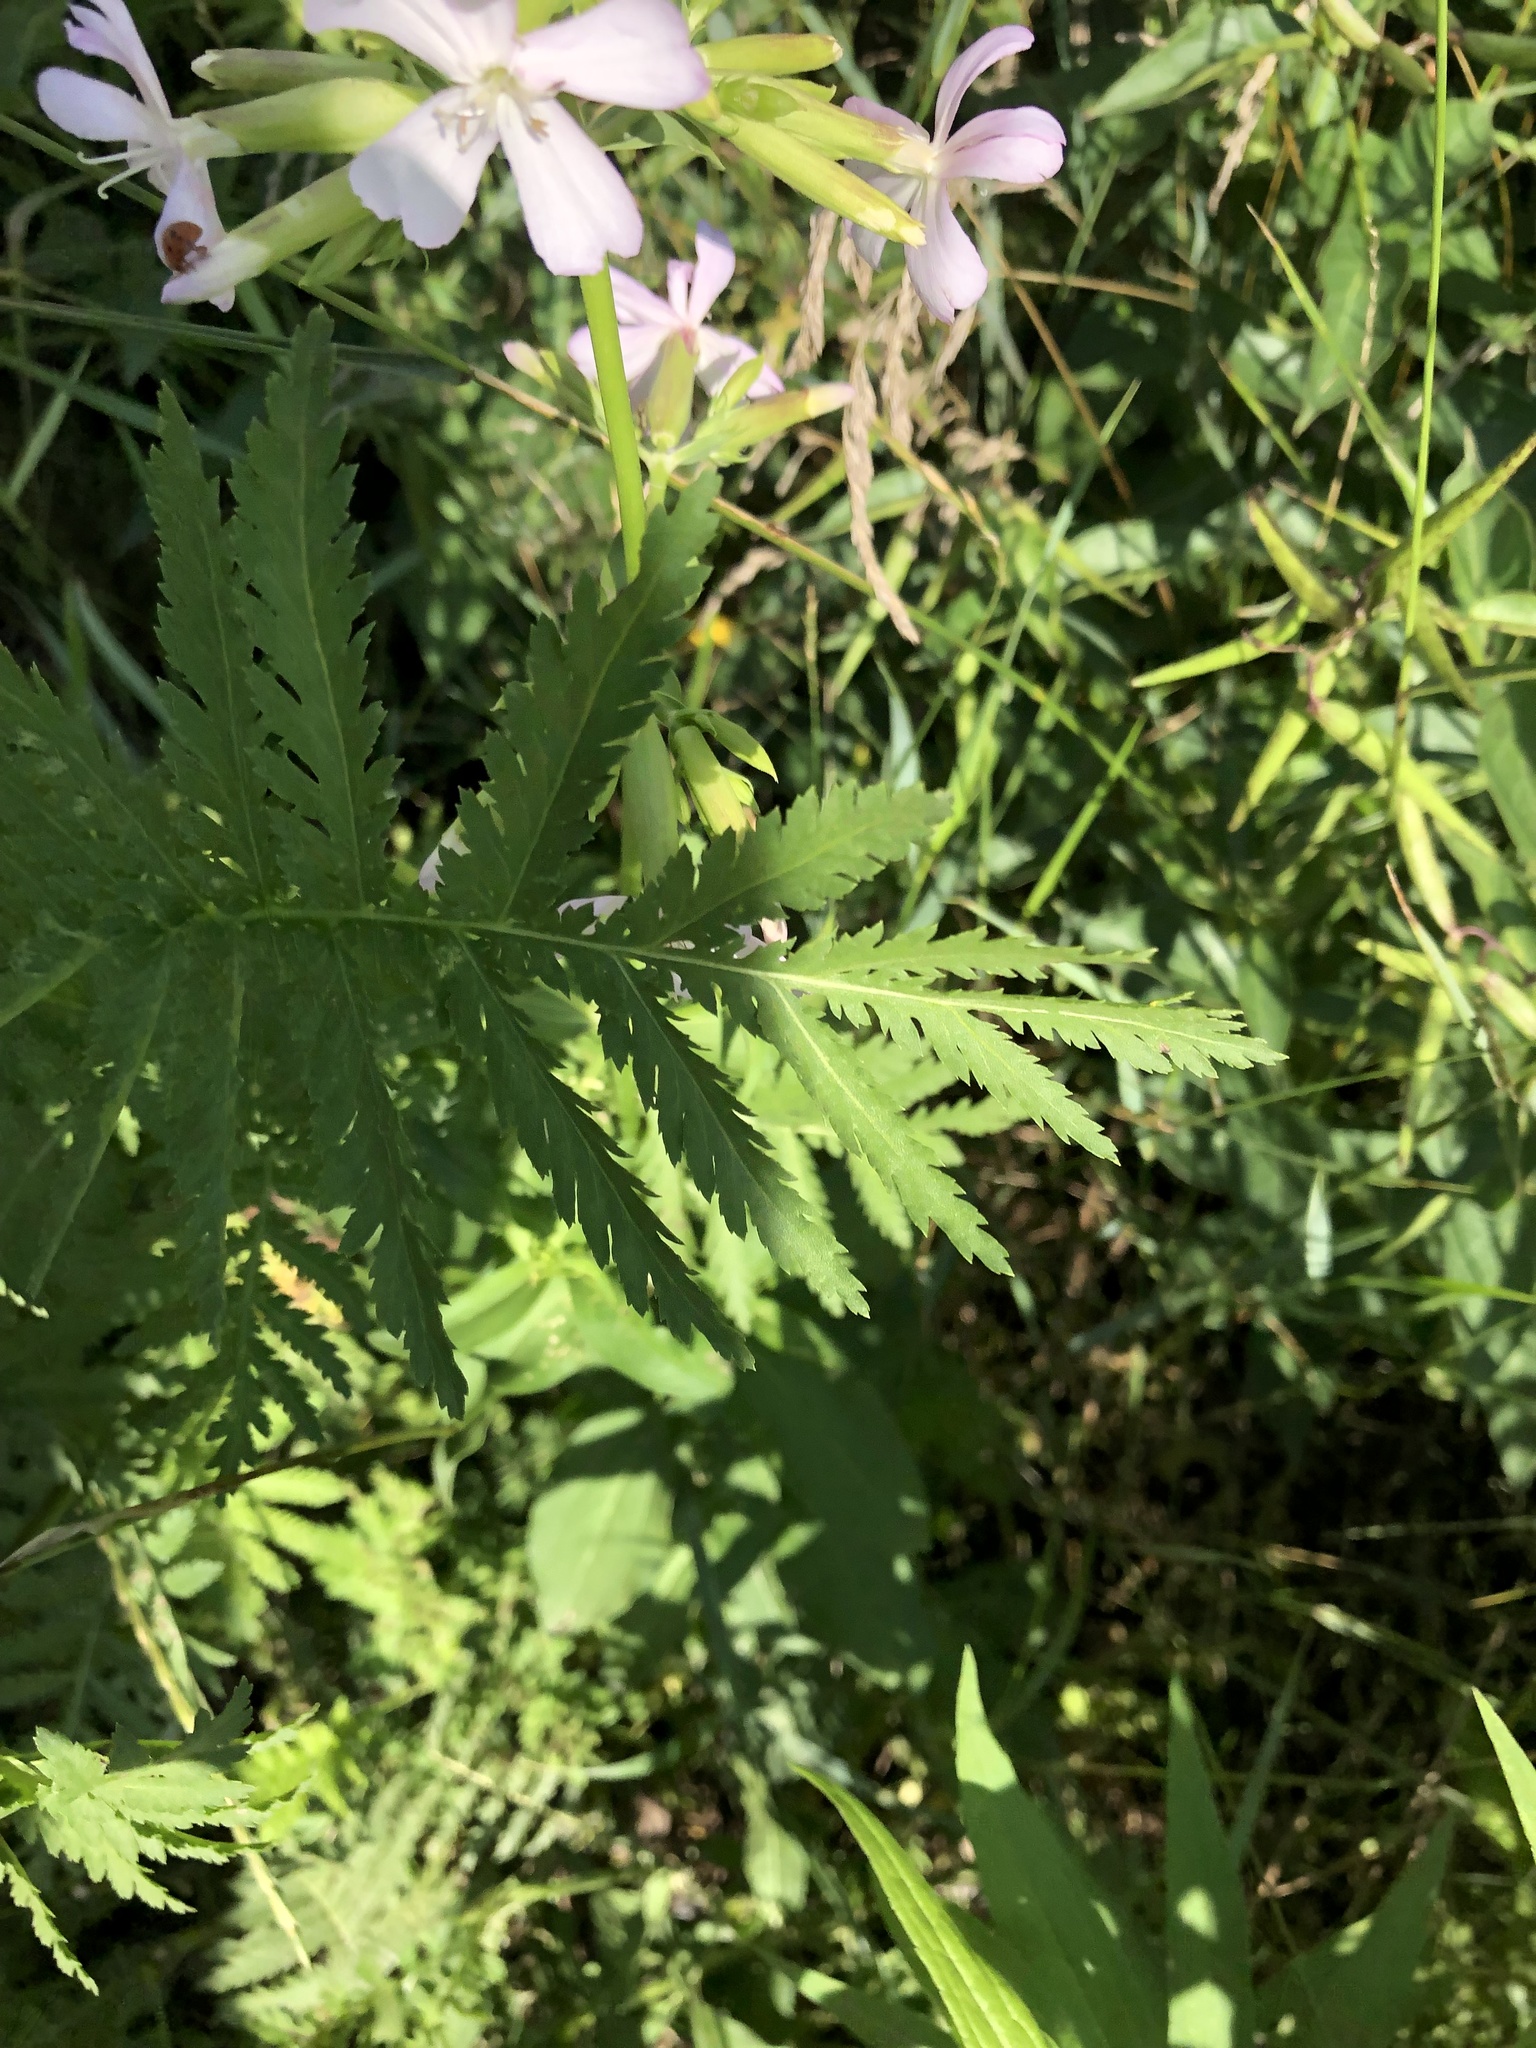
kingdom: Plantae
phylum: Tracheophyta
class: Magnoliopsida
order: Asterales
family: Asteraceae
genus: Tanacetum
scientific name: Tanacetum vulgare
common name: Common tansy
